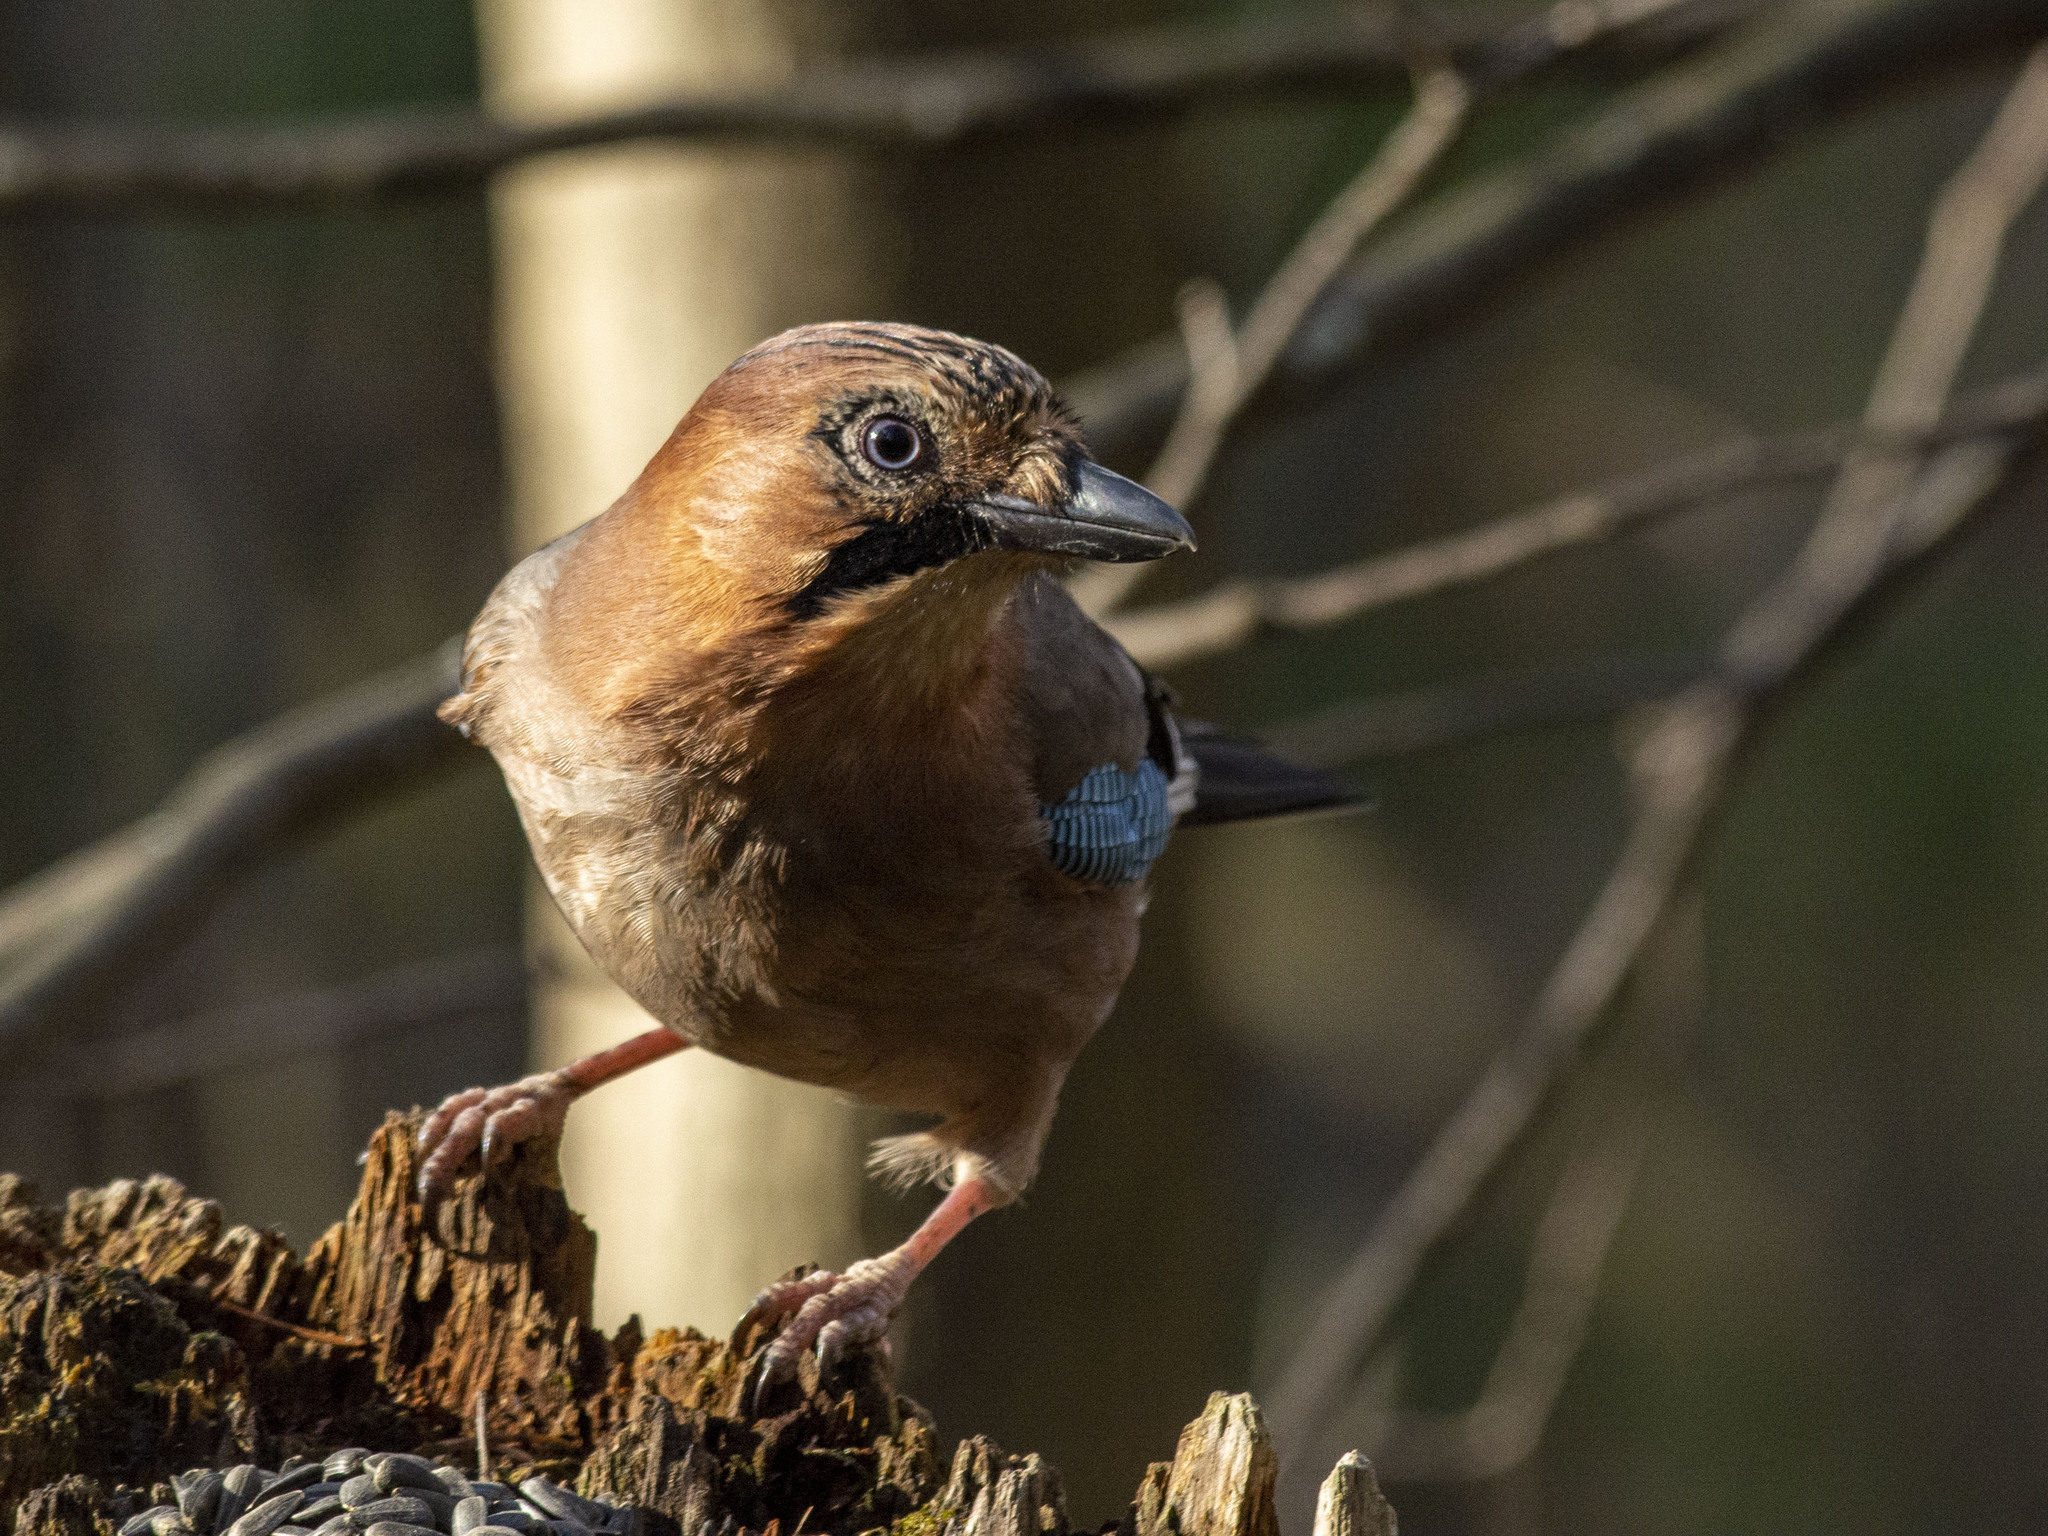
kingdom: Animalia
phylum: Chordata
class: Aves
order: Passeriformes
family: Corvidae
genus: Garrulus
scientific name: Garrulus glandarius
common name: Eurasian jay
